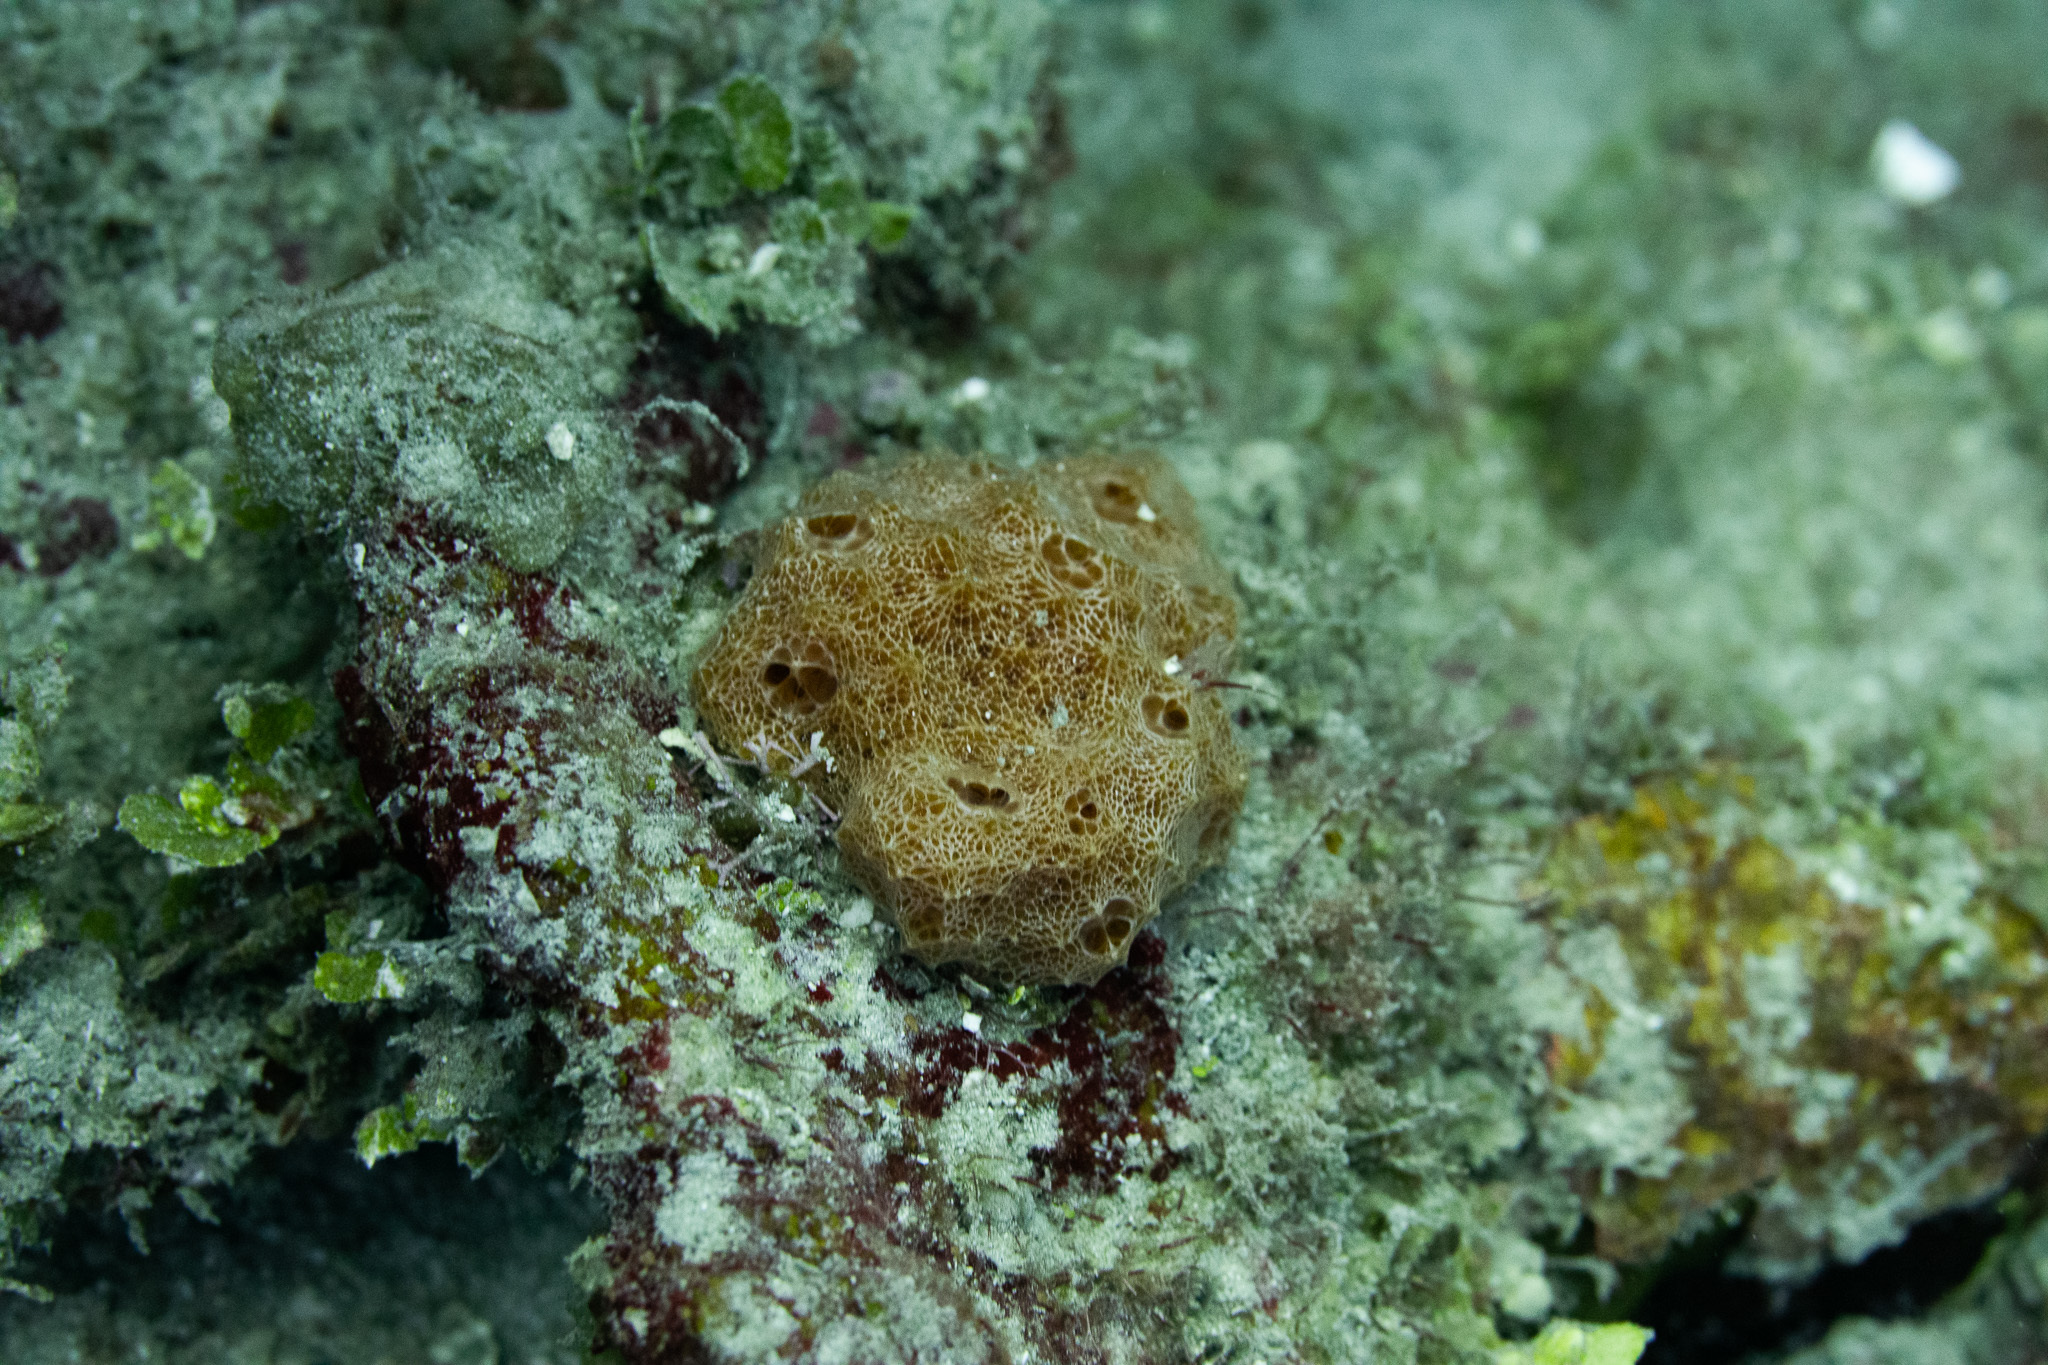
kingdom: Animalia
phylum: Porifera
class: Demospongiae
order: Scopalinida
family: Scopalinidae
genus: Scopalina
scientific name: Scopalina ruetzleri
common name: Orange lumpy encrusting sponge
